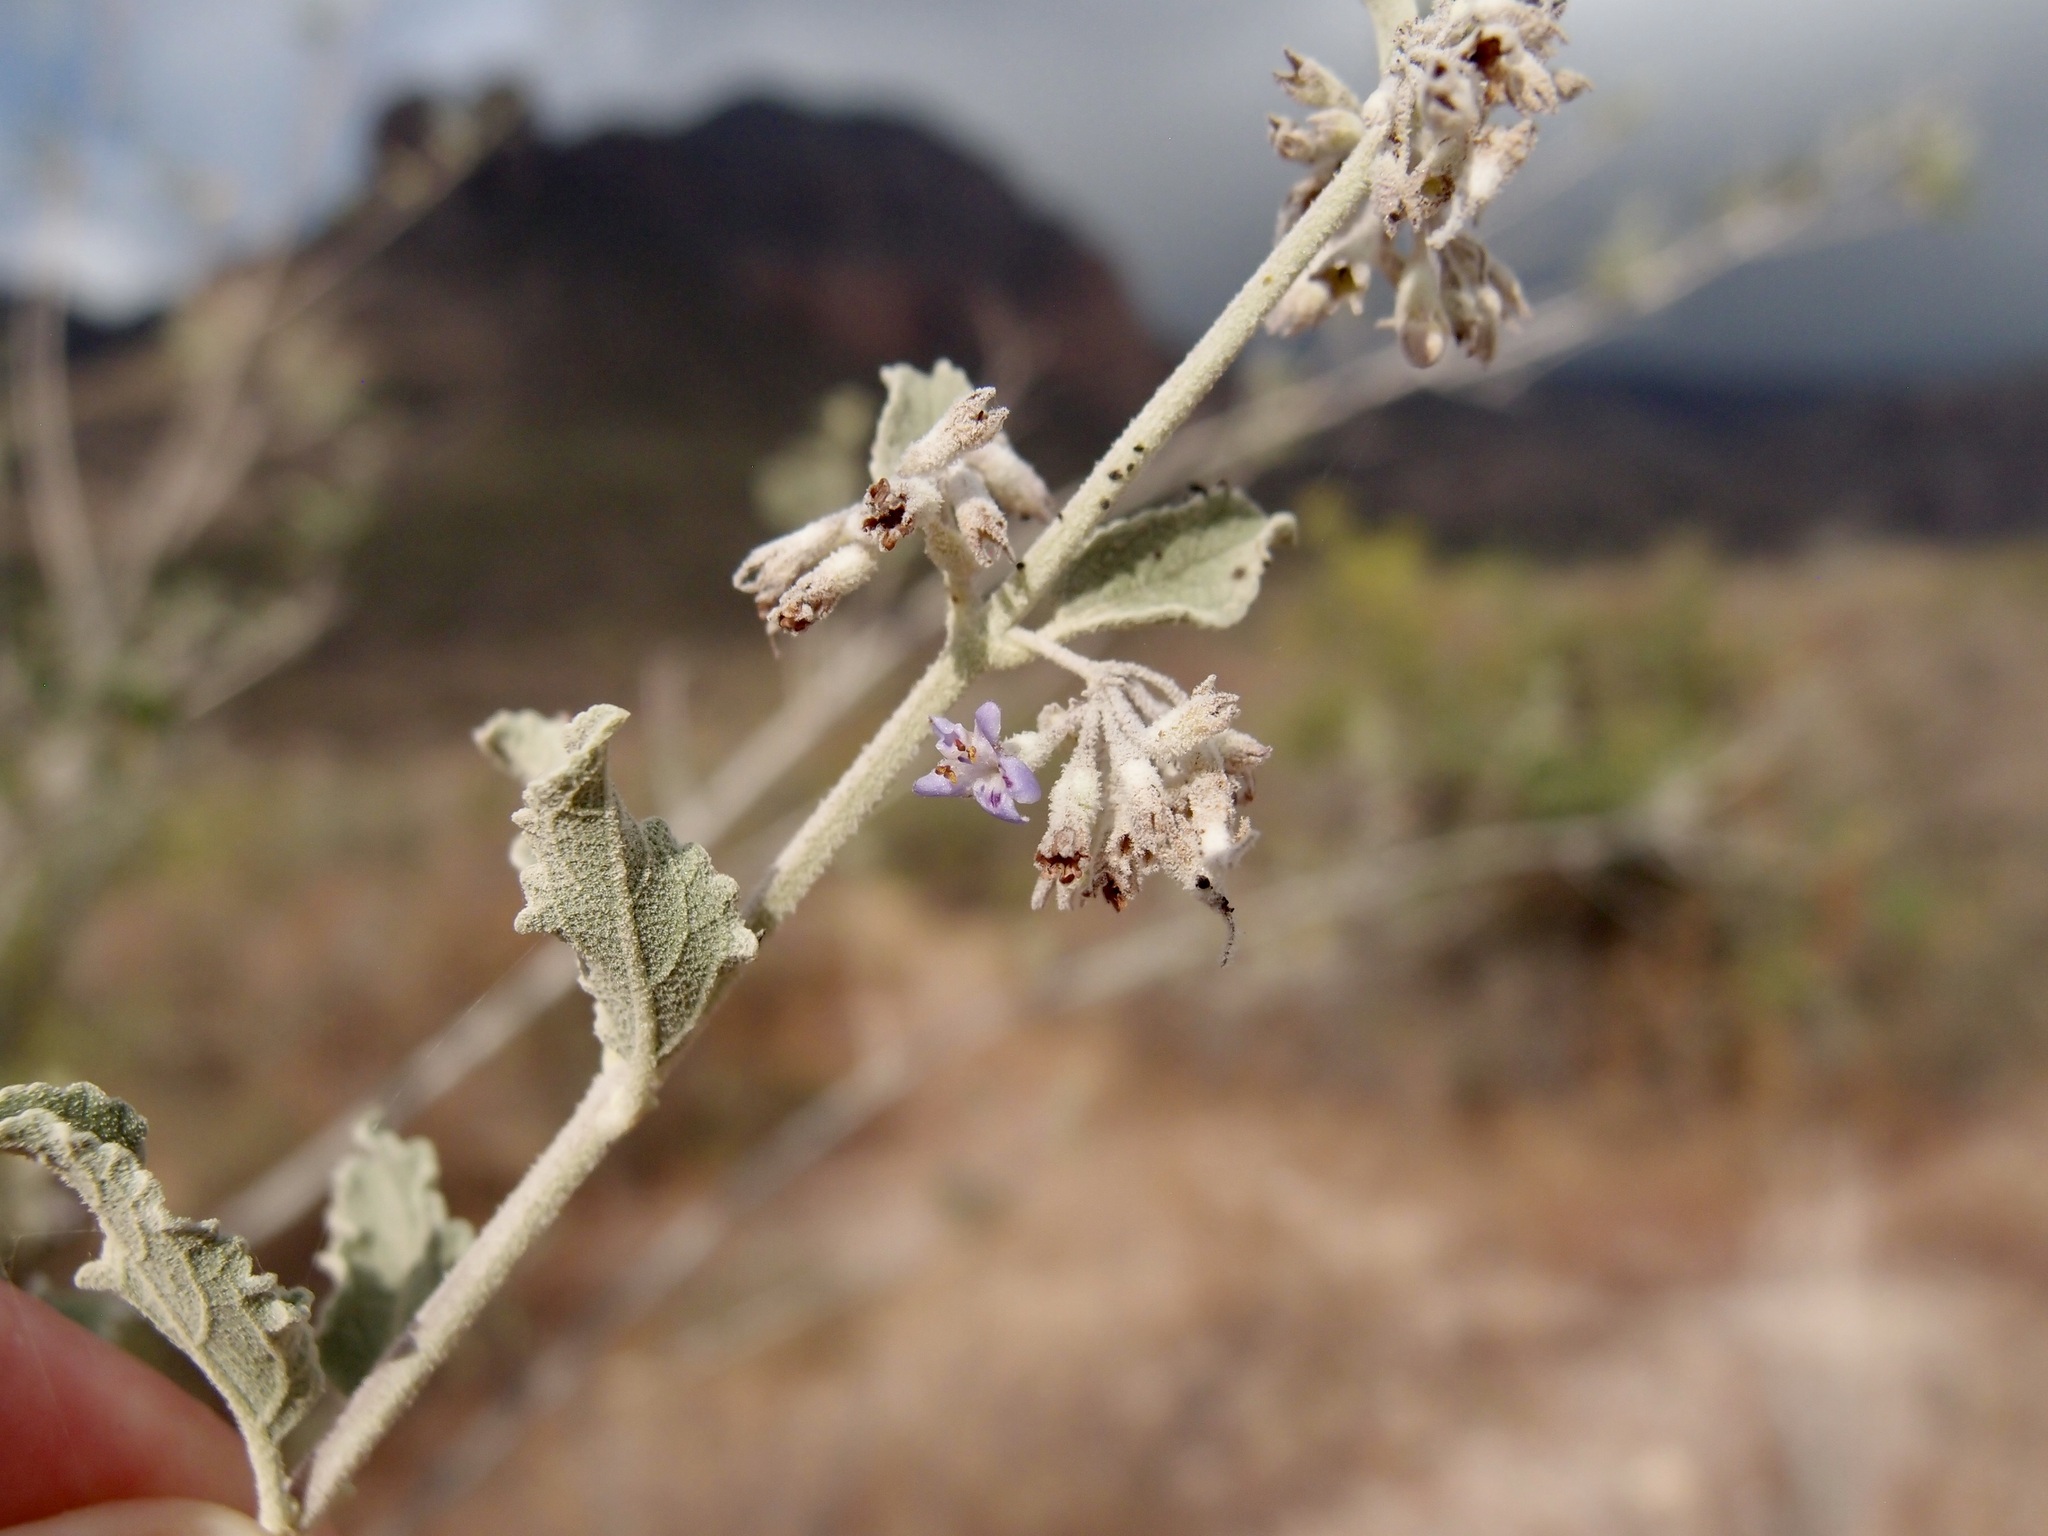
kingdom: Plantae
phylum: Tracheophyta
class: Magnoliopsida
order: Lamiales
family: Lamiaceae
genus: Condea
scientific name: Condea emoryi
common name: Chia
